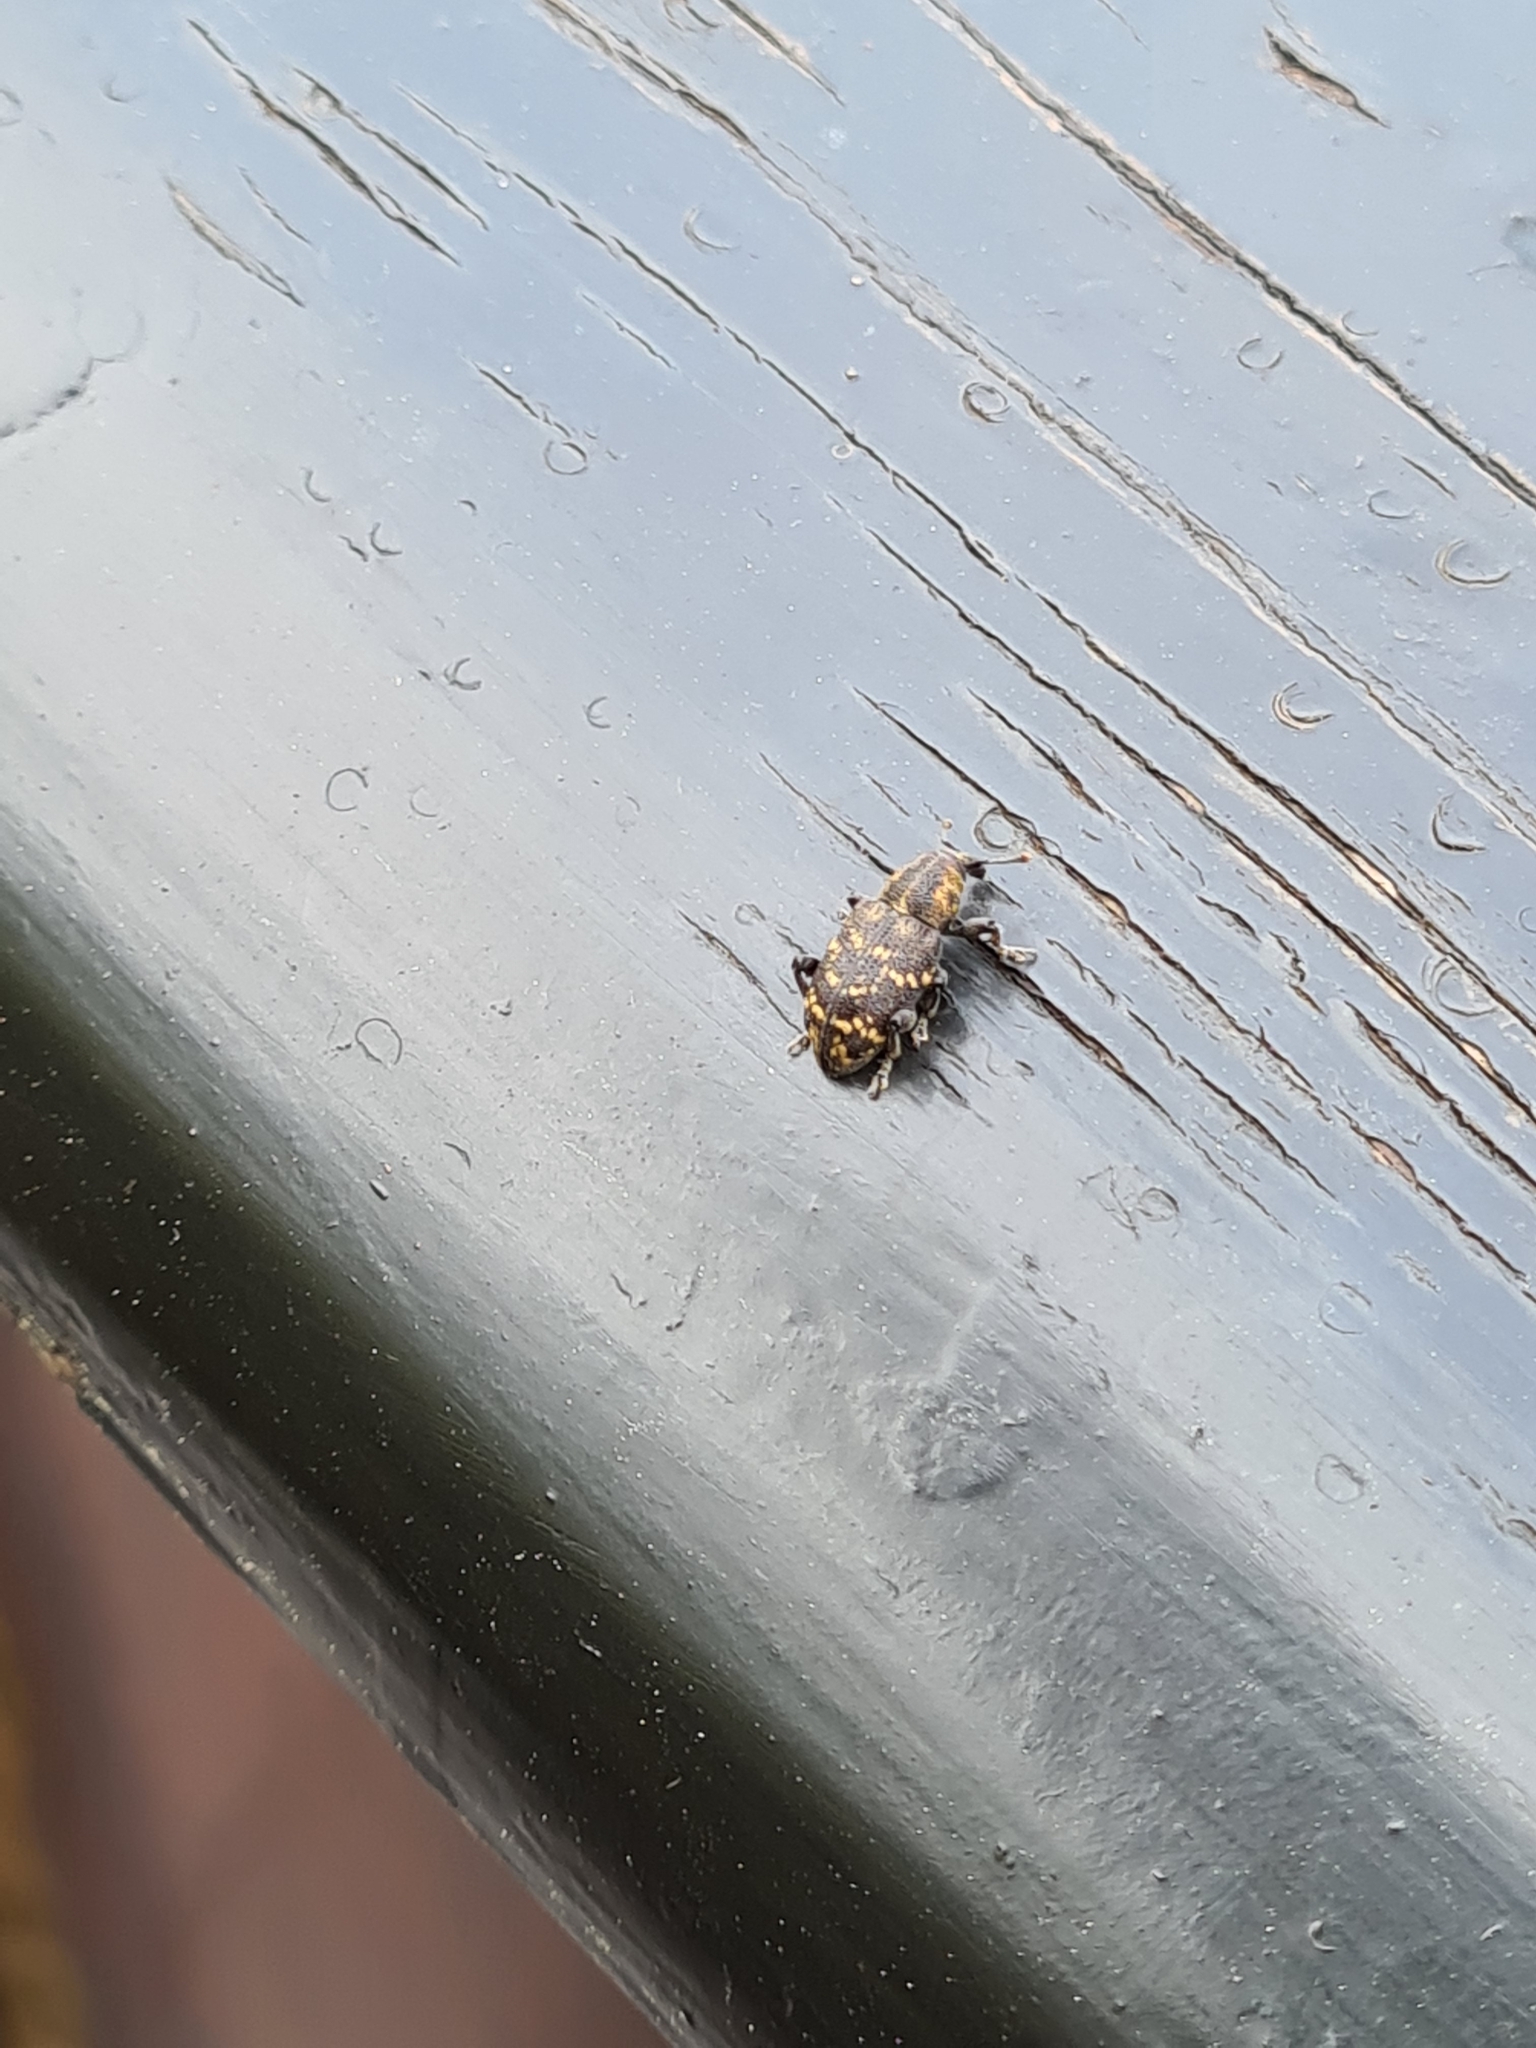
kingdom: Animalia
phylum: Arthropoda
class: Insecta
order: Coleoptera
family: Curculionidae
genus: Hylobius
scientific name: Hylobius abietis
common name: Large pine weevil
